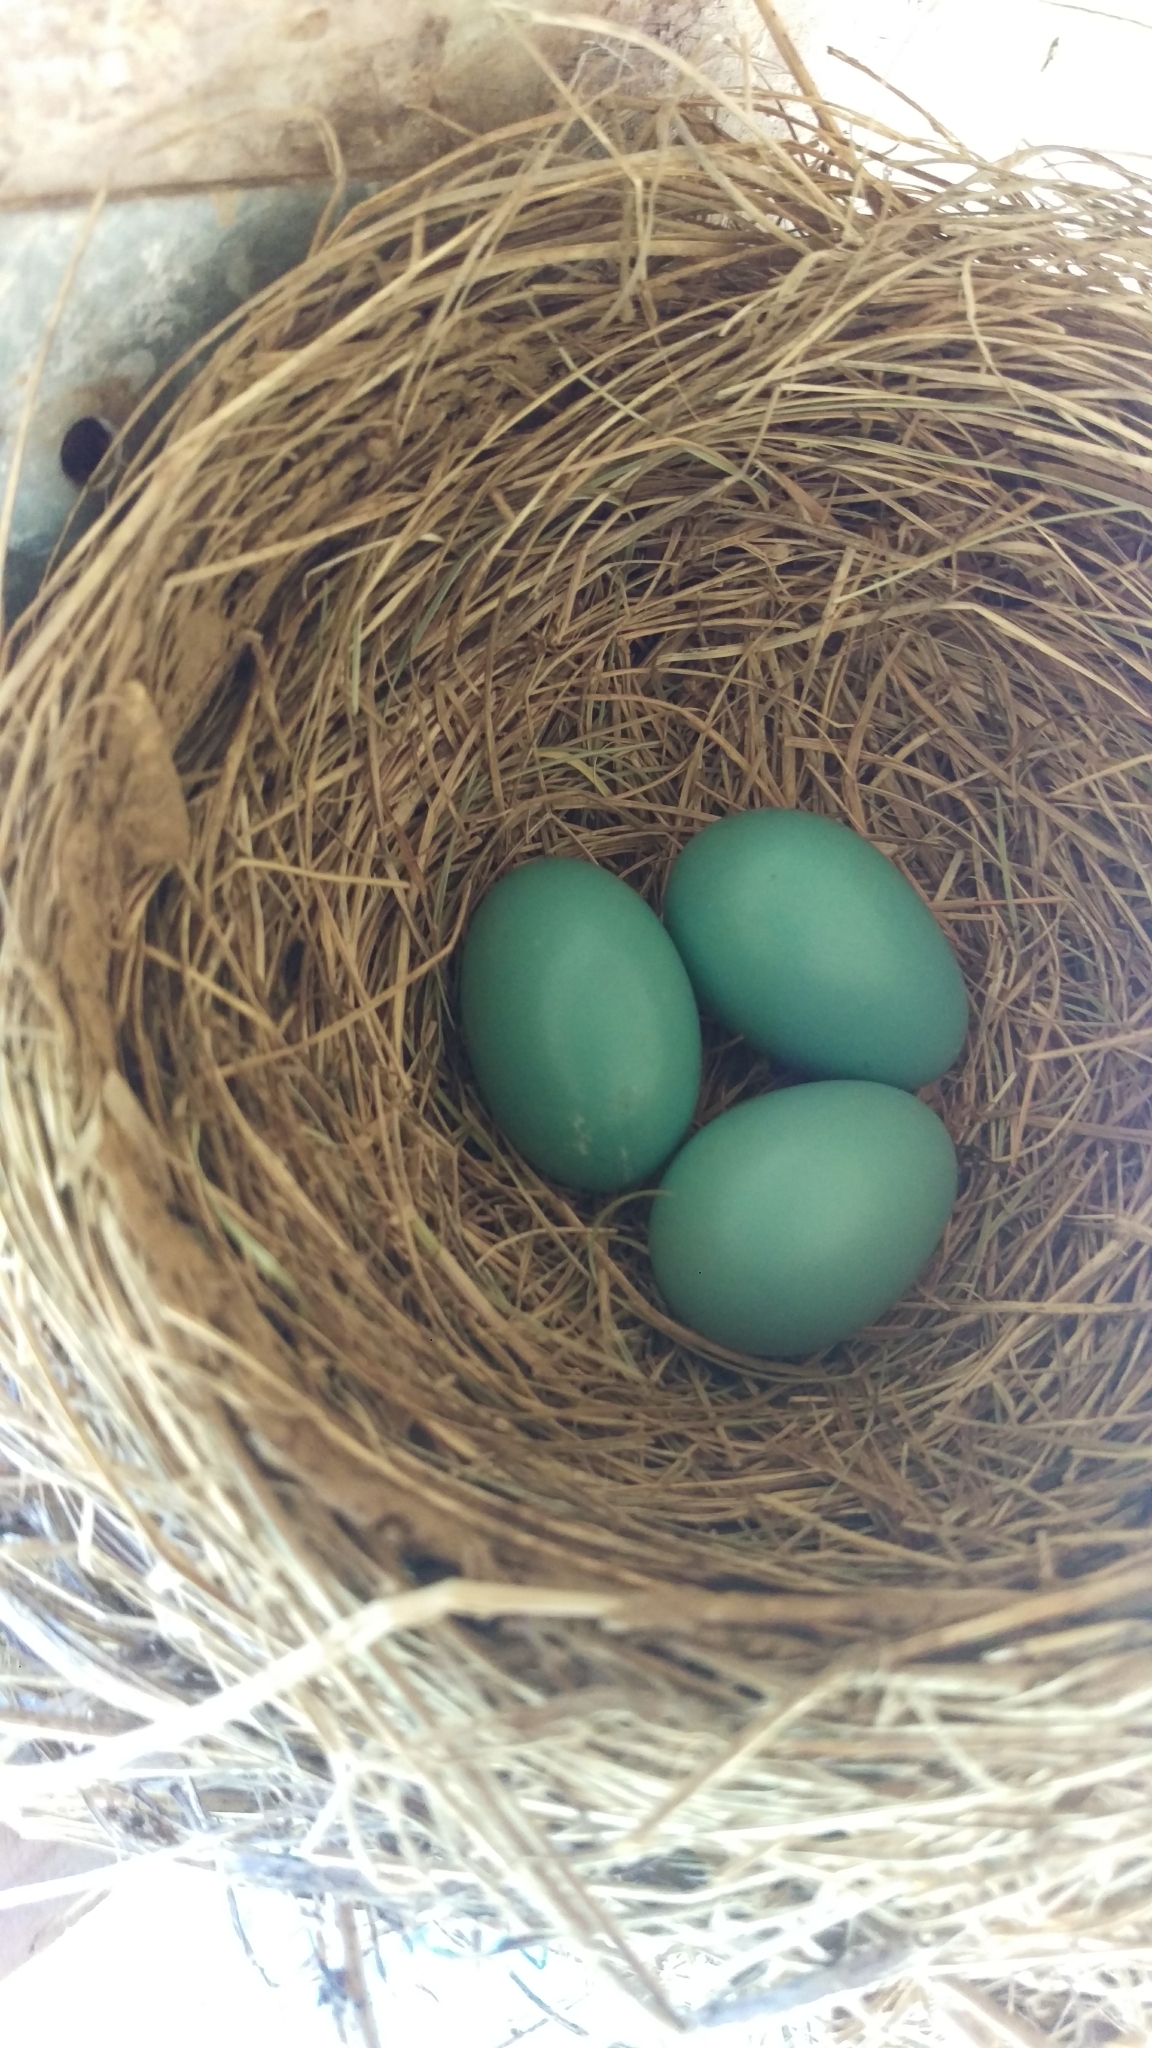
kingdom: Animalia
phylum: Chordata
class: Aves
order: Passeriformes
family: Turdidae
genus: Turdus
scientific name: Turdus migratorius
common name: American robin
